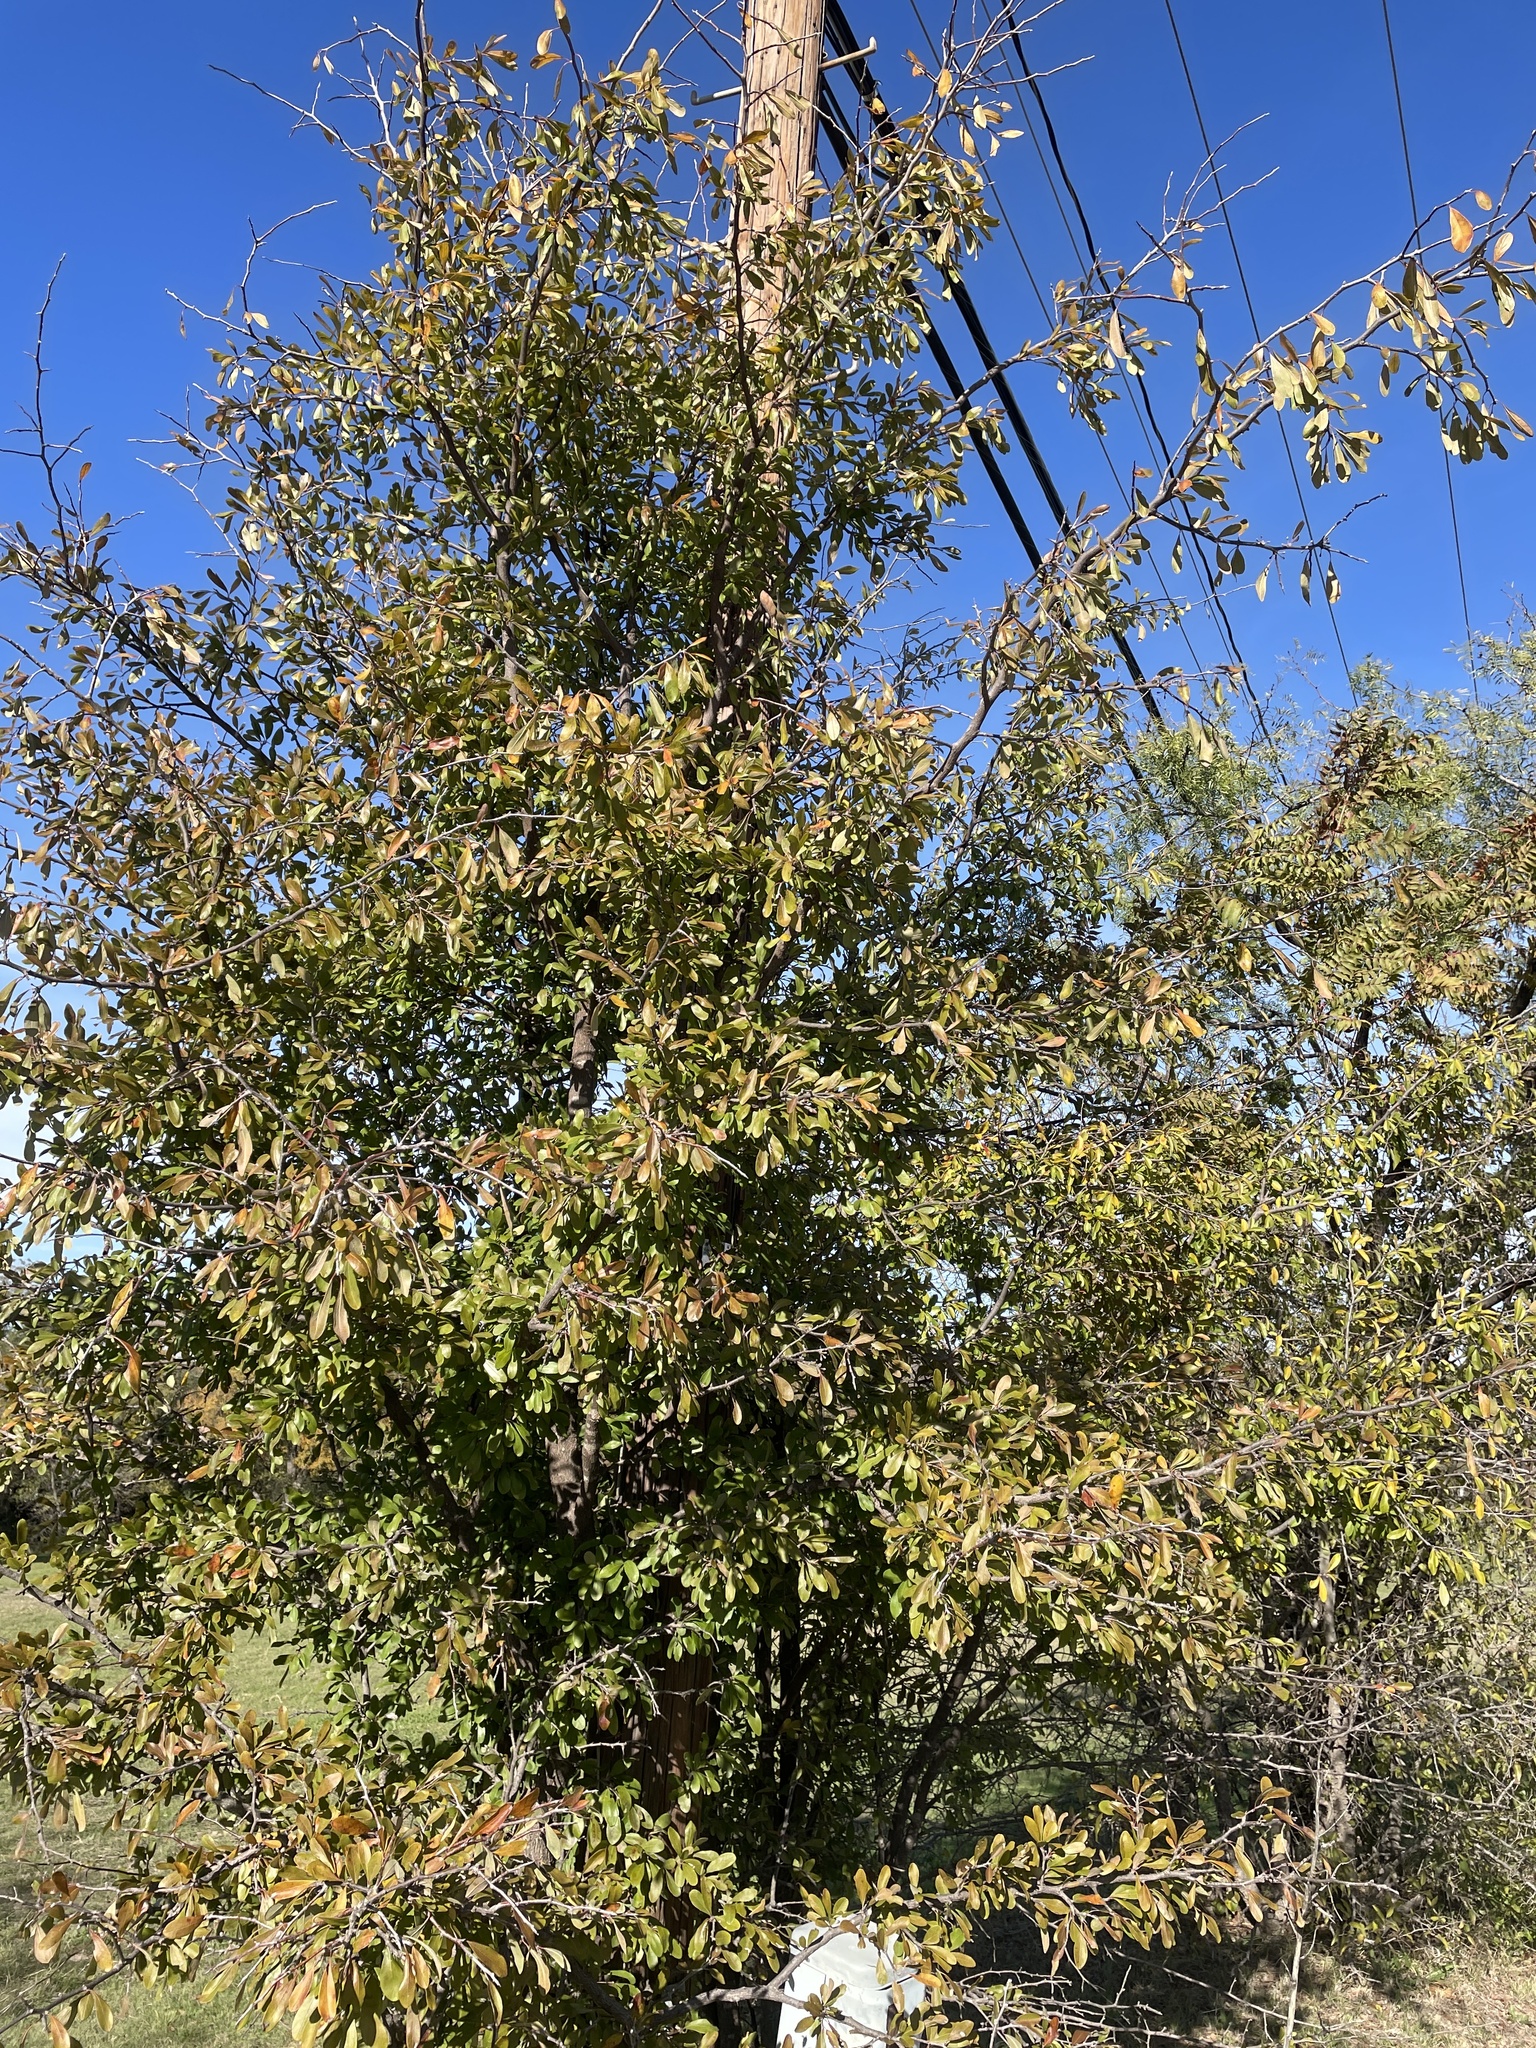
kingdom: Plantae
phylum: Tracheophyta
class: Magnoliopsida
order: Ericales
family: Sapotaceae
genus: Sideroxylon
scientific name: Sideroxylon lanuginosum
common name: Chittamwood
